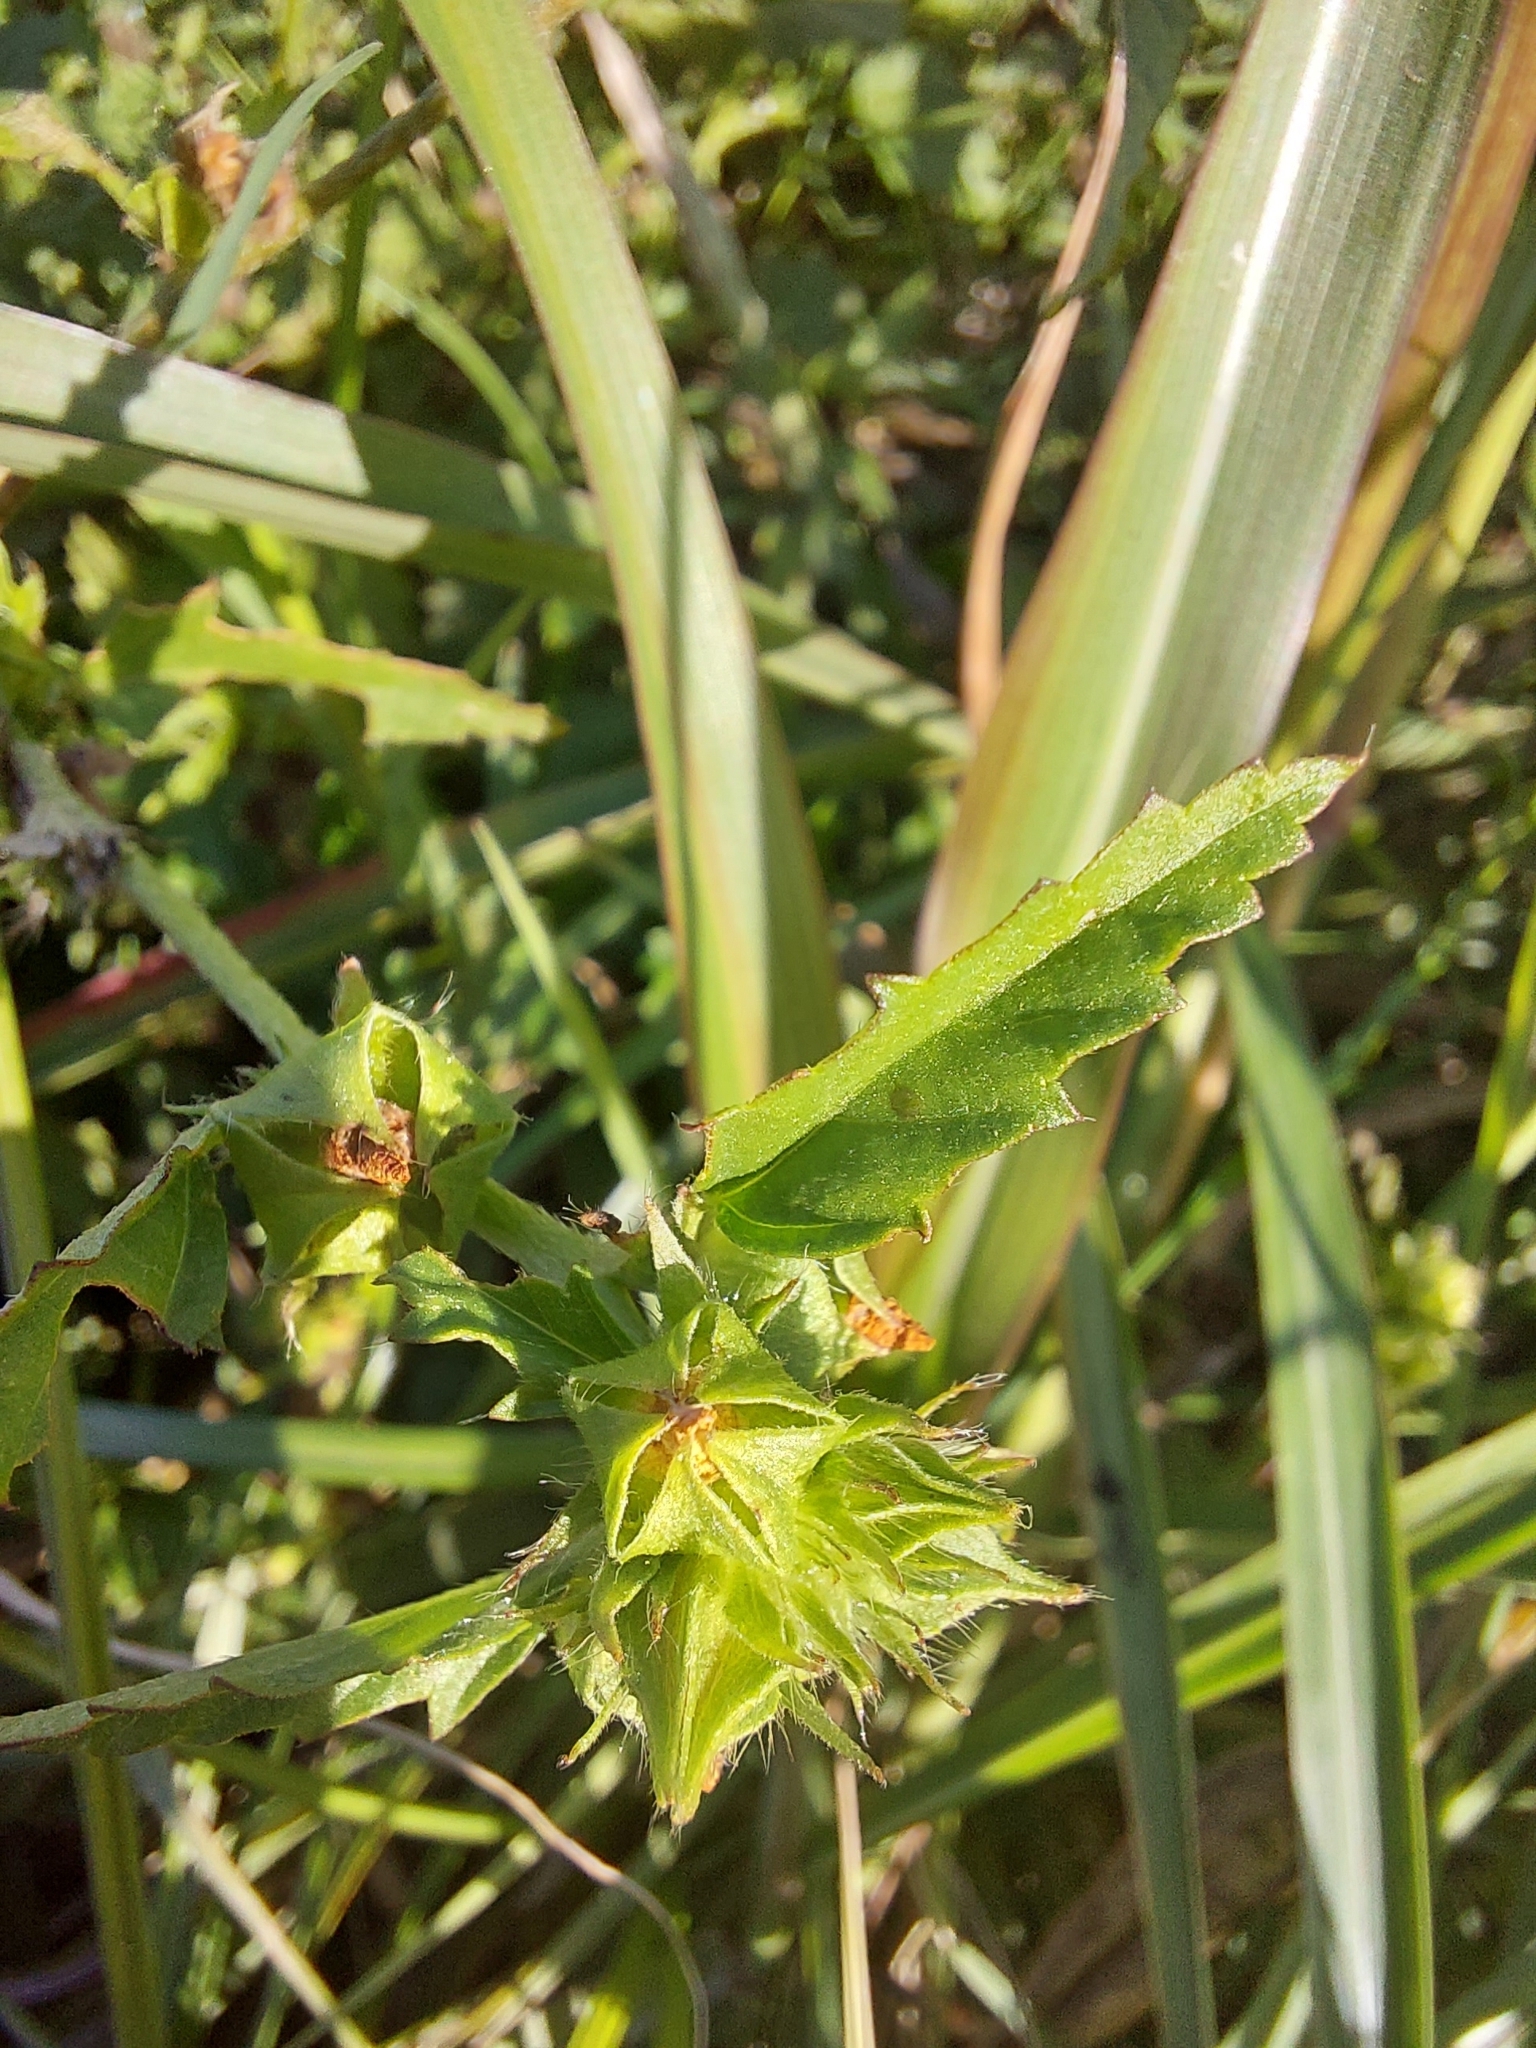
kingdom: Plantae
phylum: Tracheophyta
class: Magnoliopsida
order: Malvales
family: Malvaceae
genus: Malvastrum
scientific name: Malvastrum coromandelianum
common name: Threelobe false mallow
